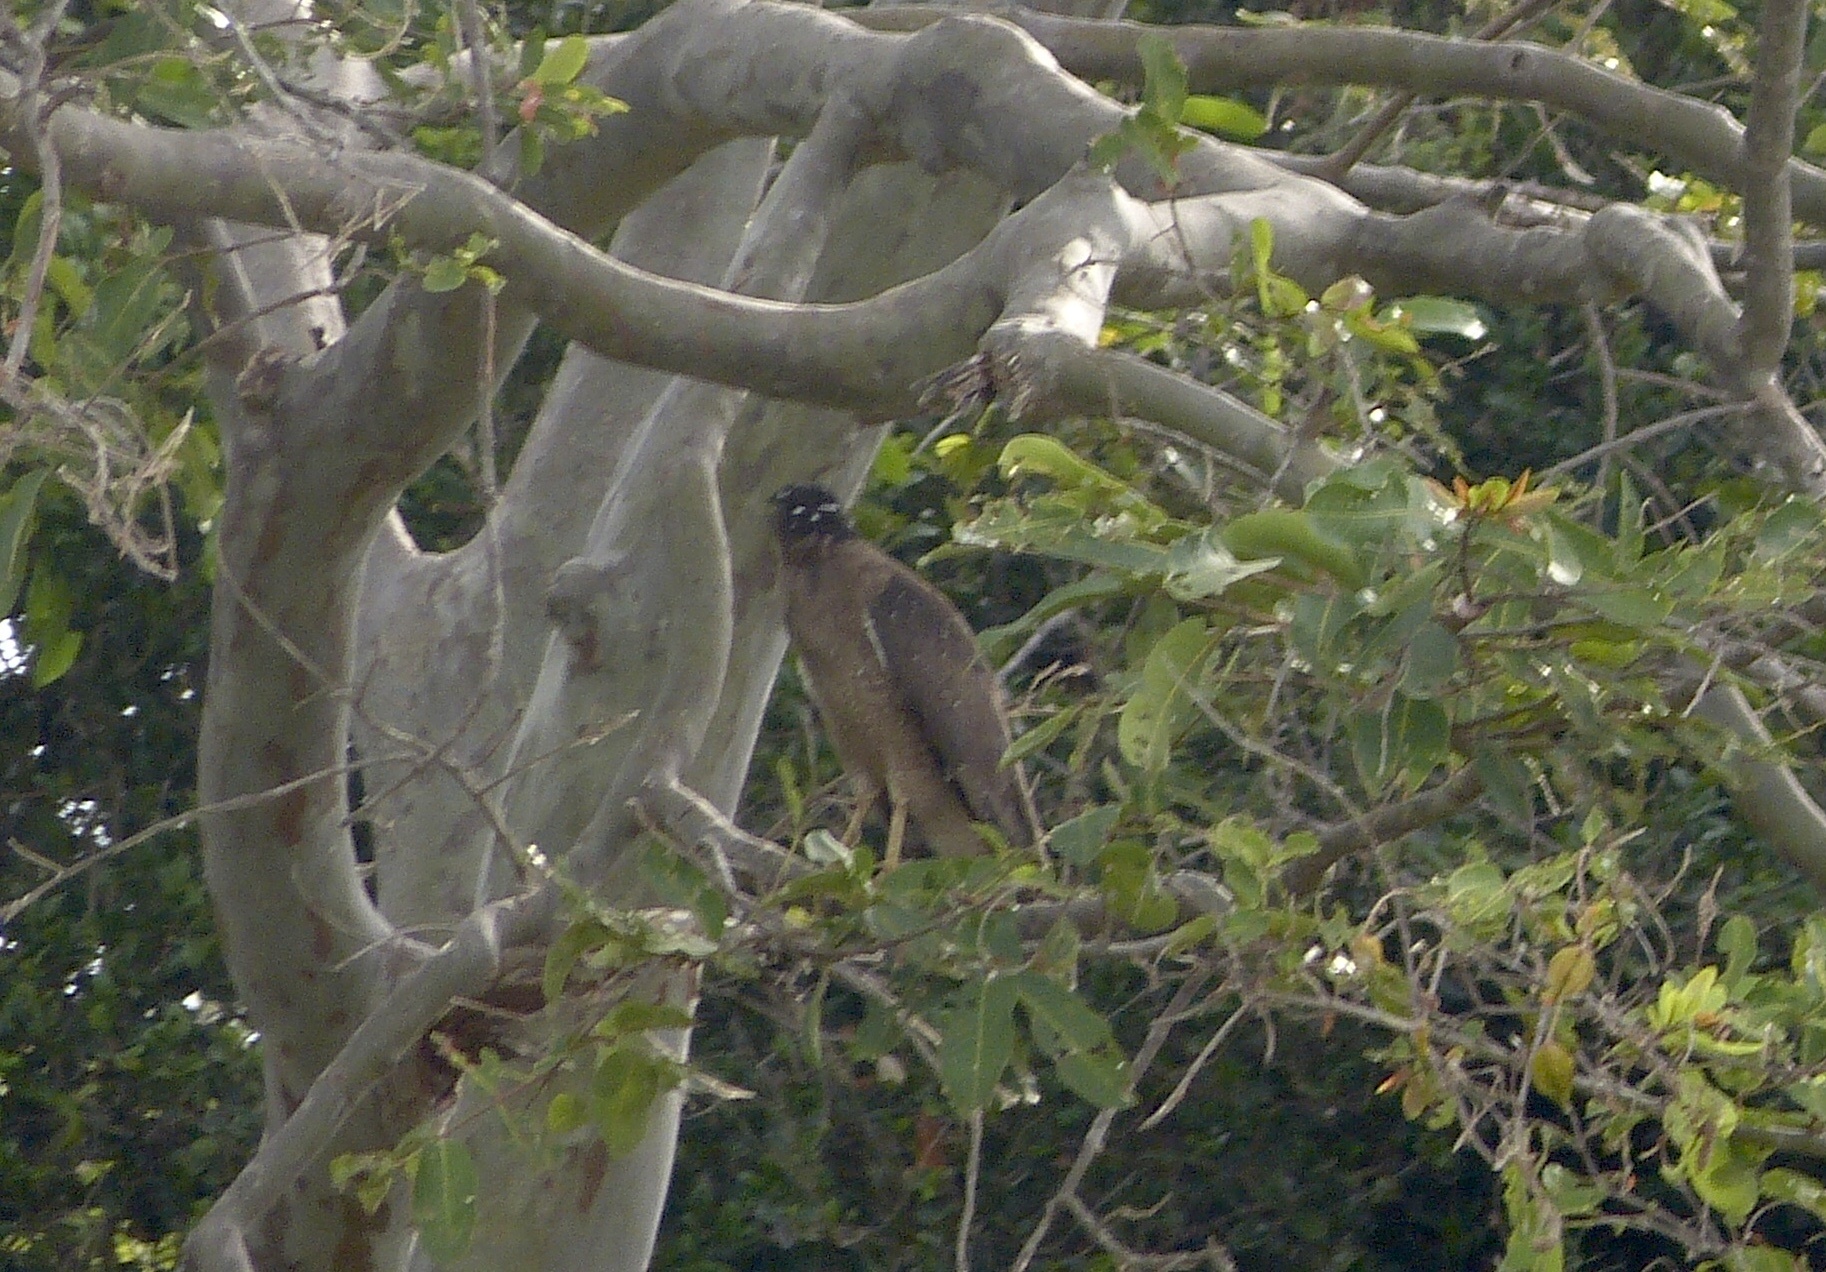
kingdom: Animalia
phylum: Chordata
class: Aves
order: Accipitriformes
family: Accipitridae
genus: Spilornis
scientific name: Spilornis cheela
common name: Crested serpent eagle
